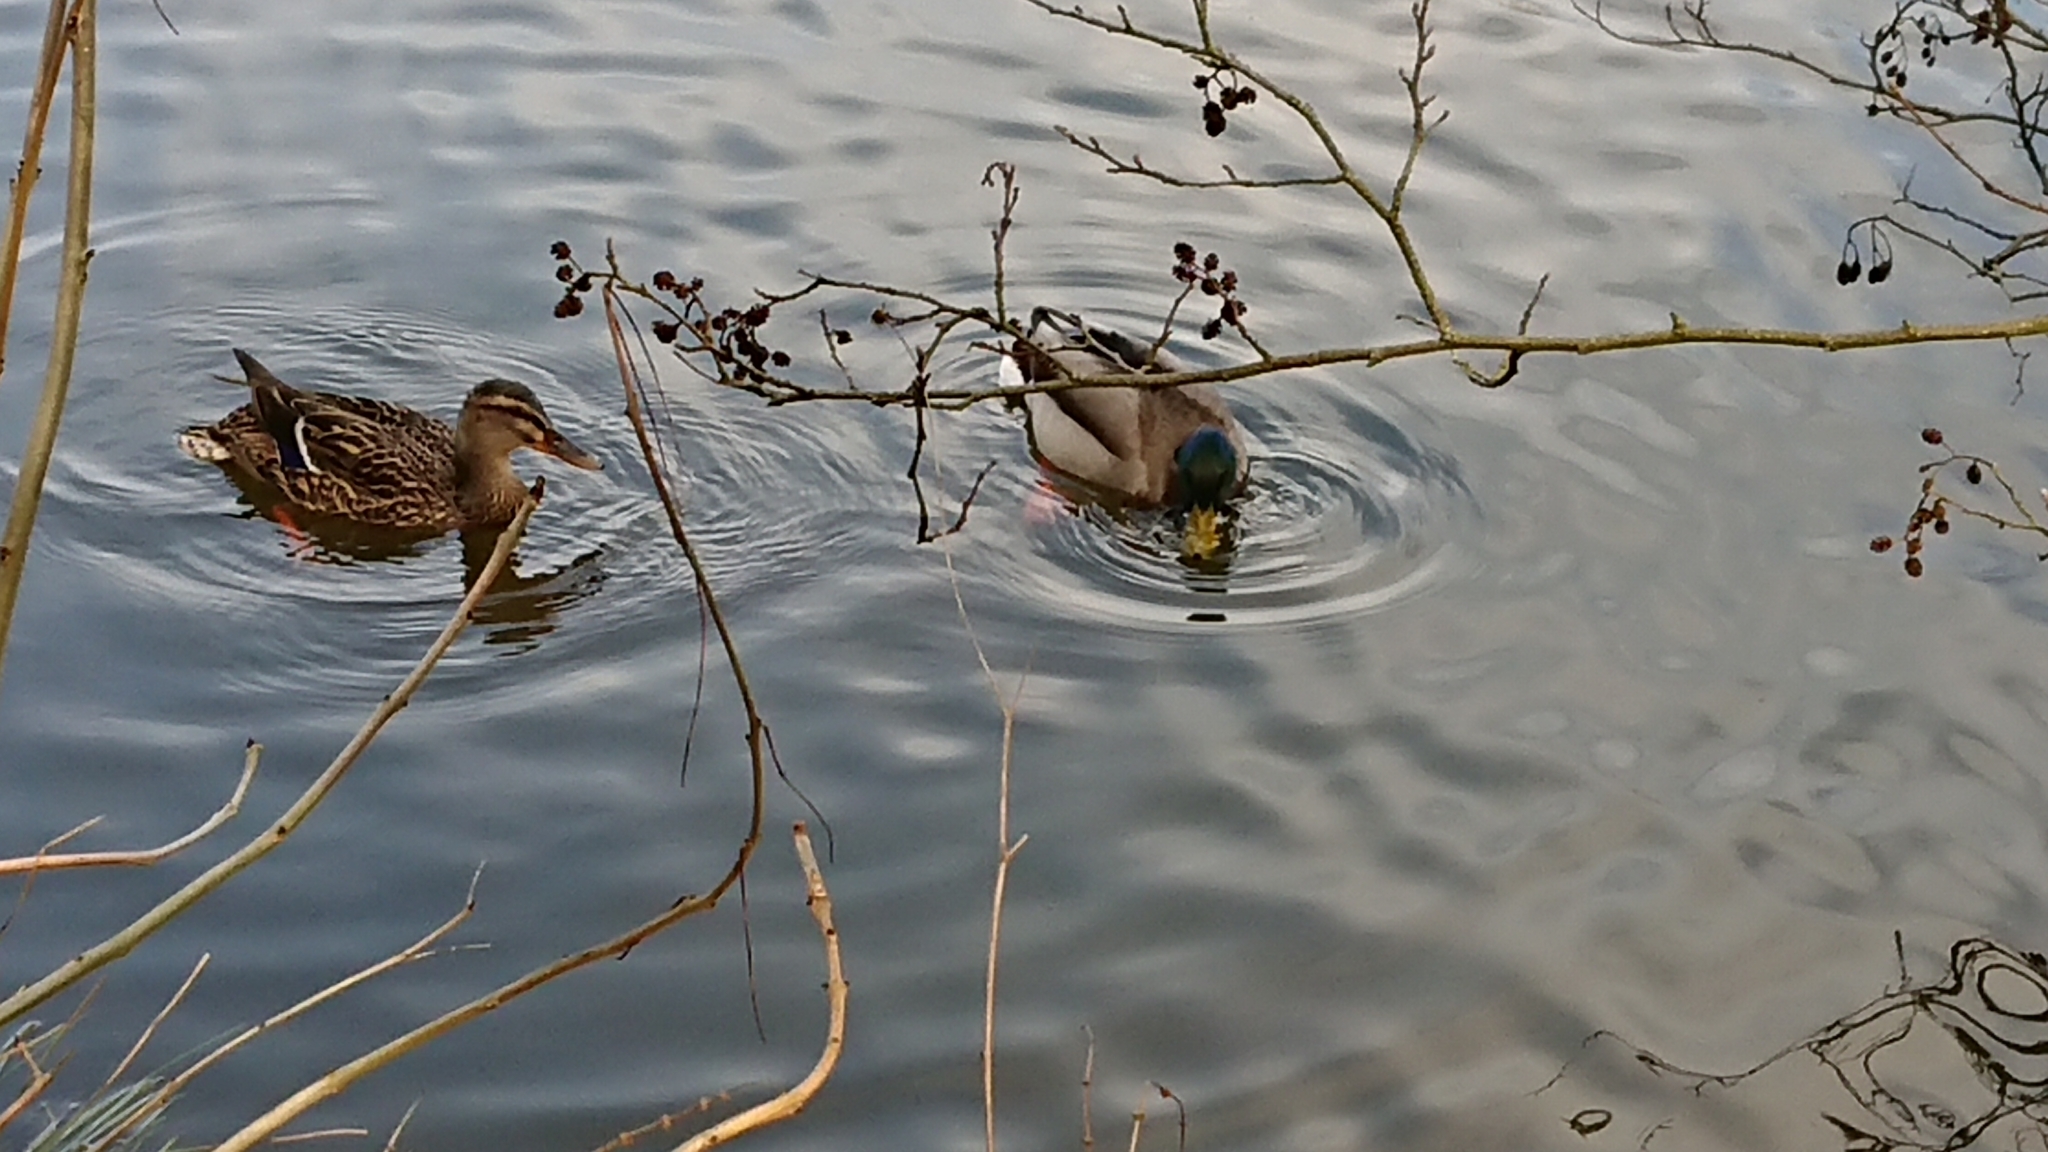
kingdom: Animalia
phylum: Chordata
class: Aves
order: Anseriformes
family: Anatidae
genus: Anas
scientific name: Anas platyrhynchos
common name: Mallard
